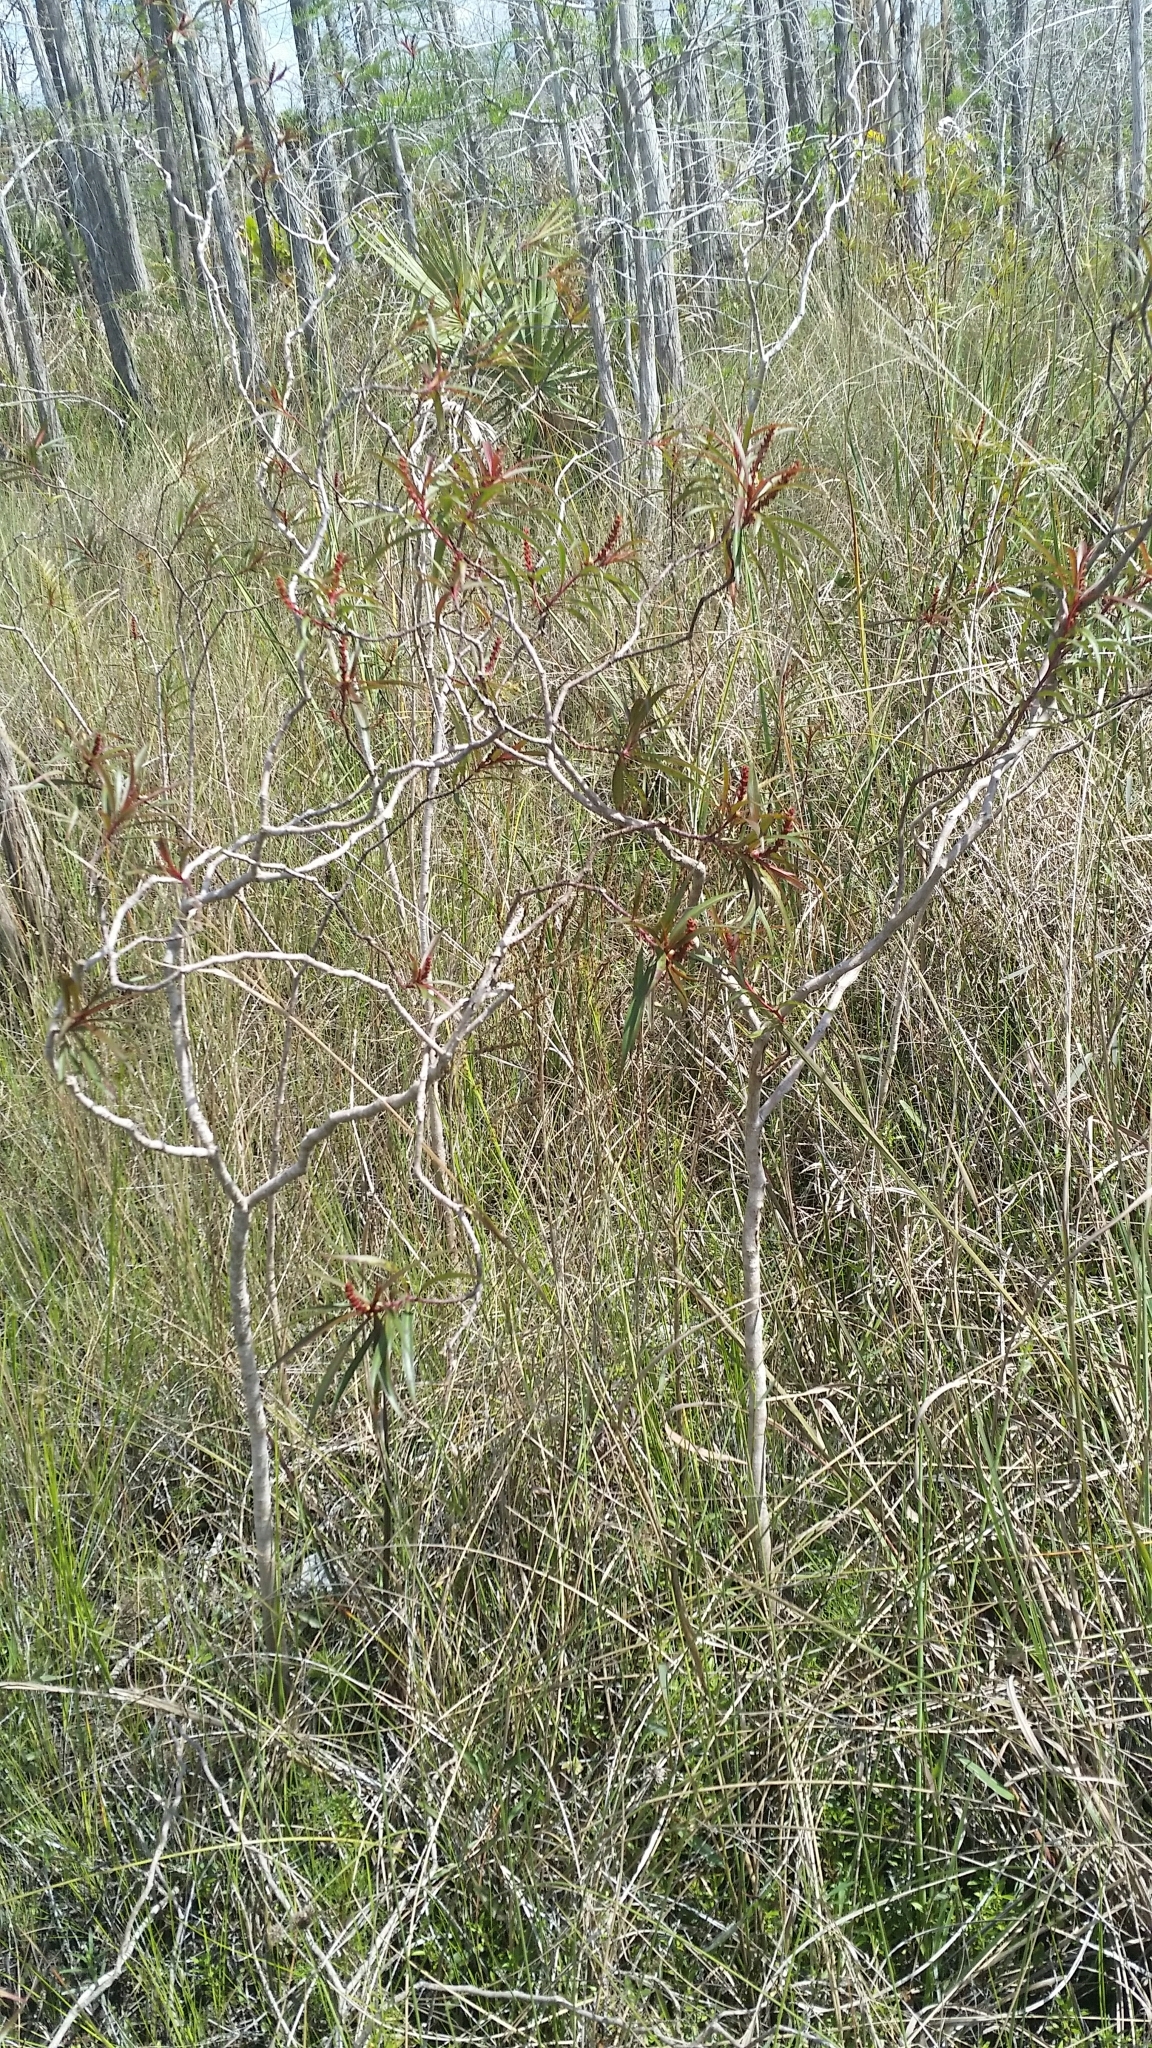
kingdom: Plantae
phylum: Tracheophyta
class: Magnoliopsida
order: Malpighiales
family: Euphorbiaceae
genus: Stillingia
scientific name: Stillingia aquatica
